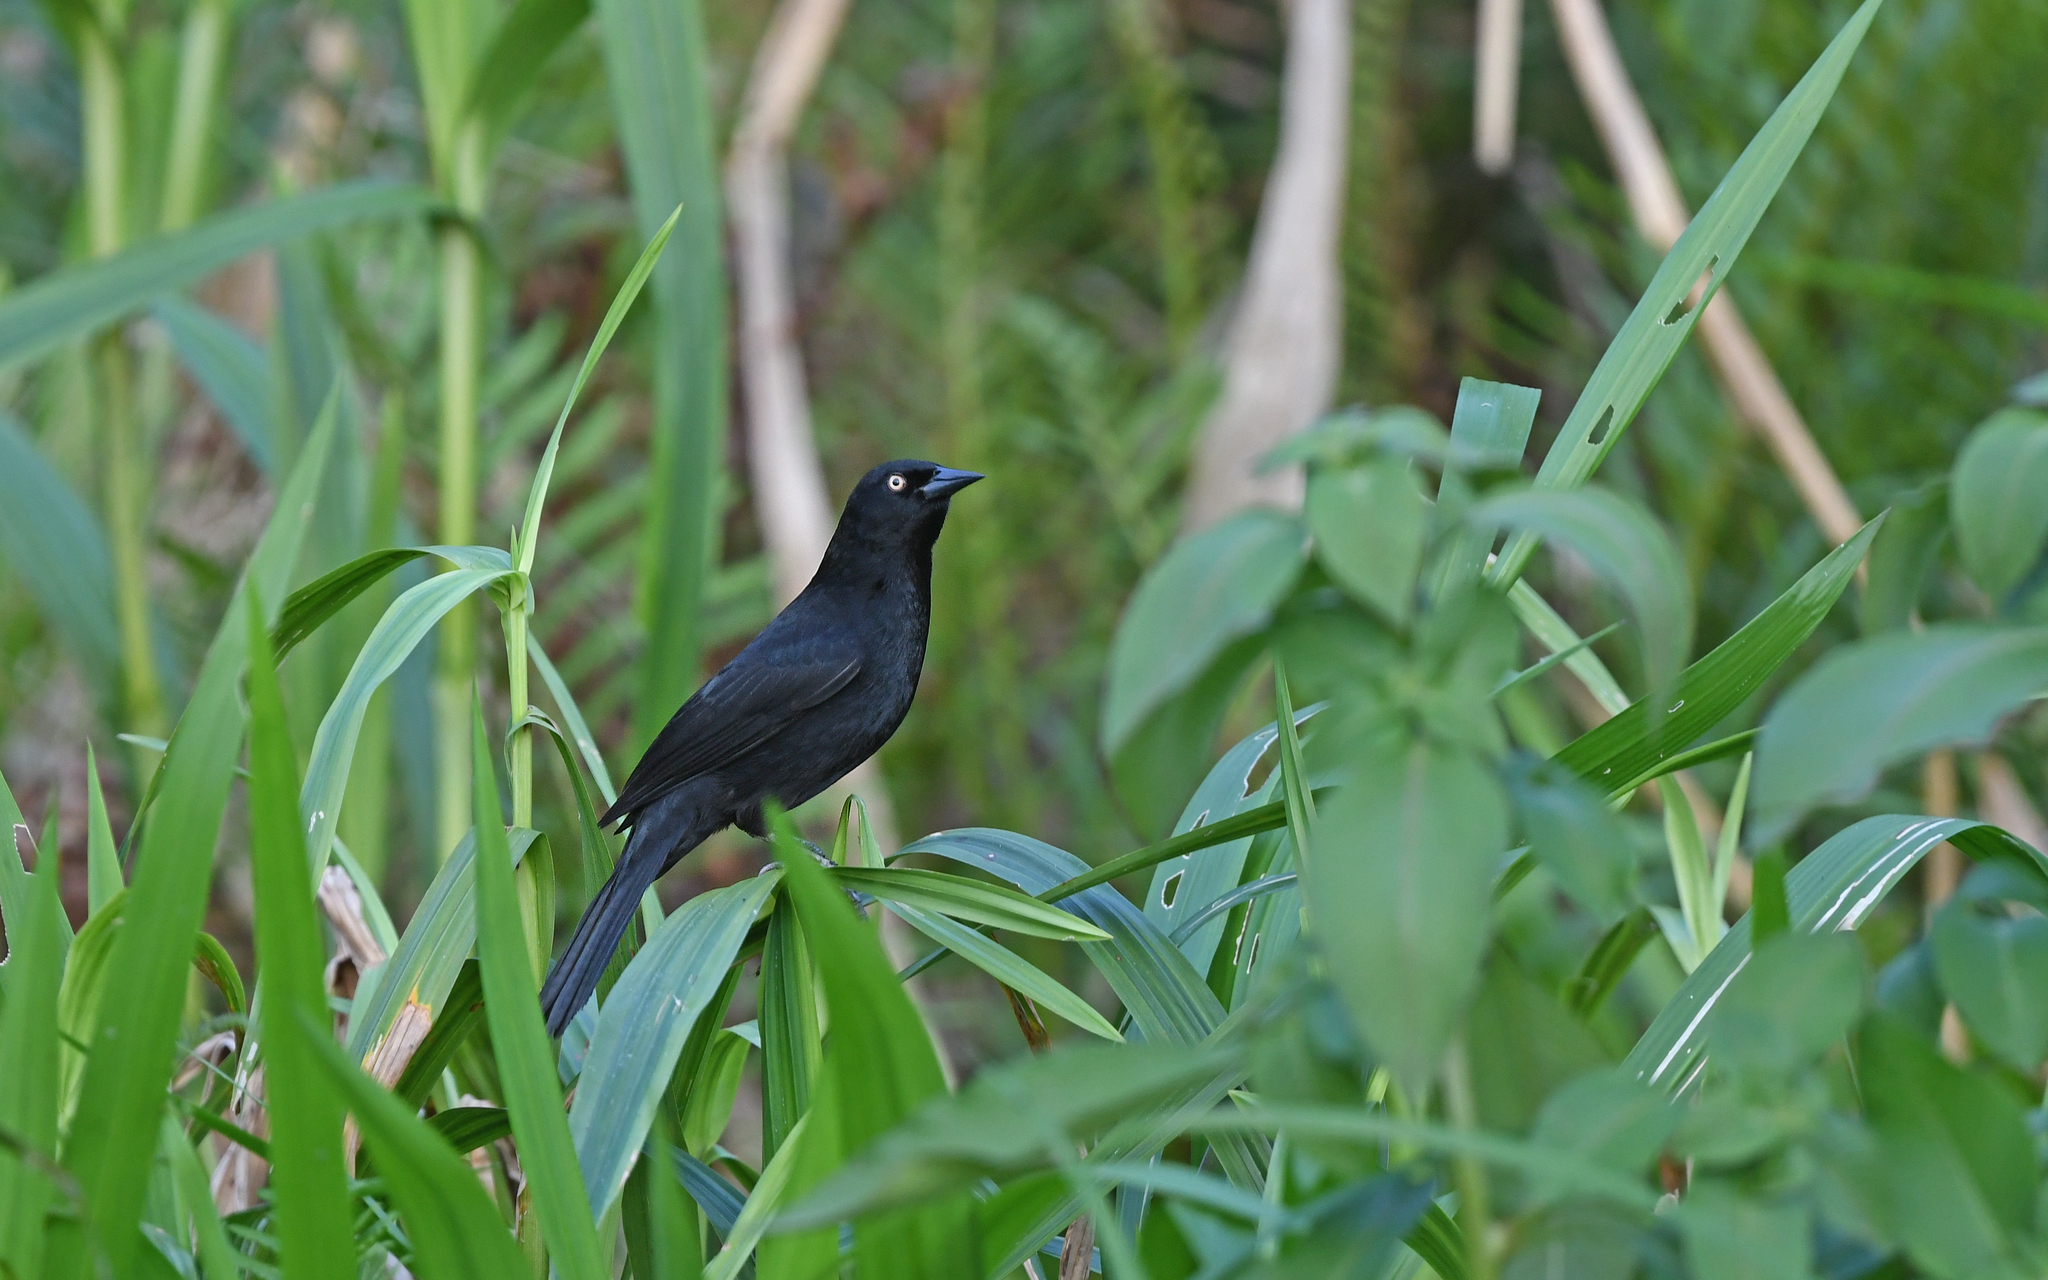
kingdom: Animalia
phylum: Chordata
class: Aves
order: Passeriformes
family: Icteridae
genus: Agelasticus
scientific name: Agelasticus xanthophthalmus
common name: Pale-eyed blackbird
